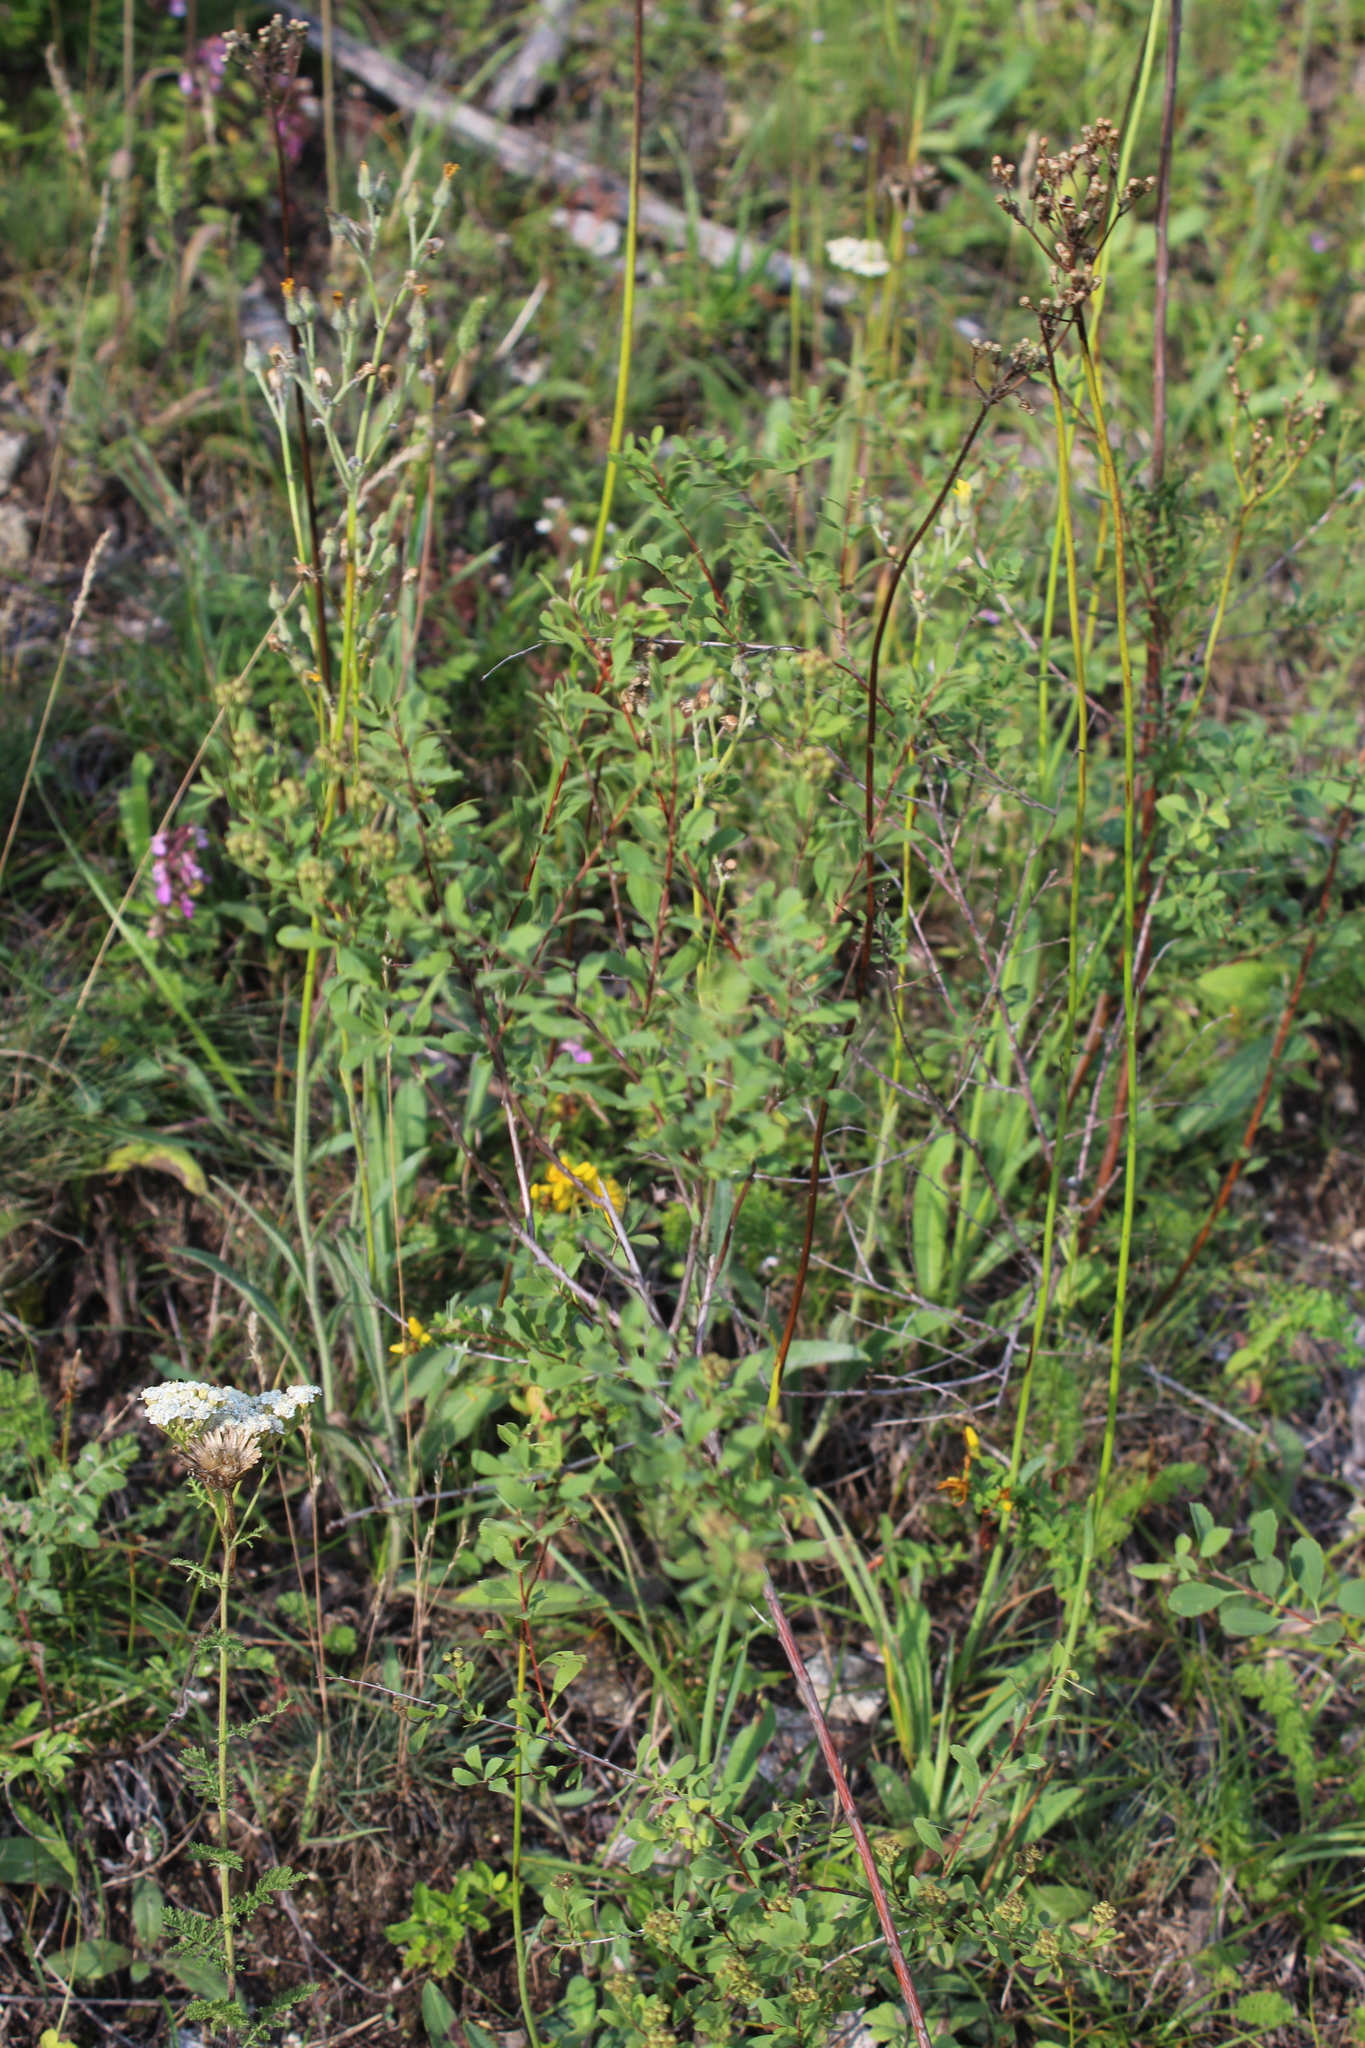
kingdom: Plantae
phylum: Tracheophyta
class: Magnoliopsida
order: Rosales
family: Rosaceae
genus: Spiraea
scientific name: Spiraea crenata
